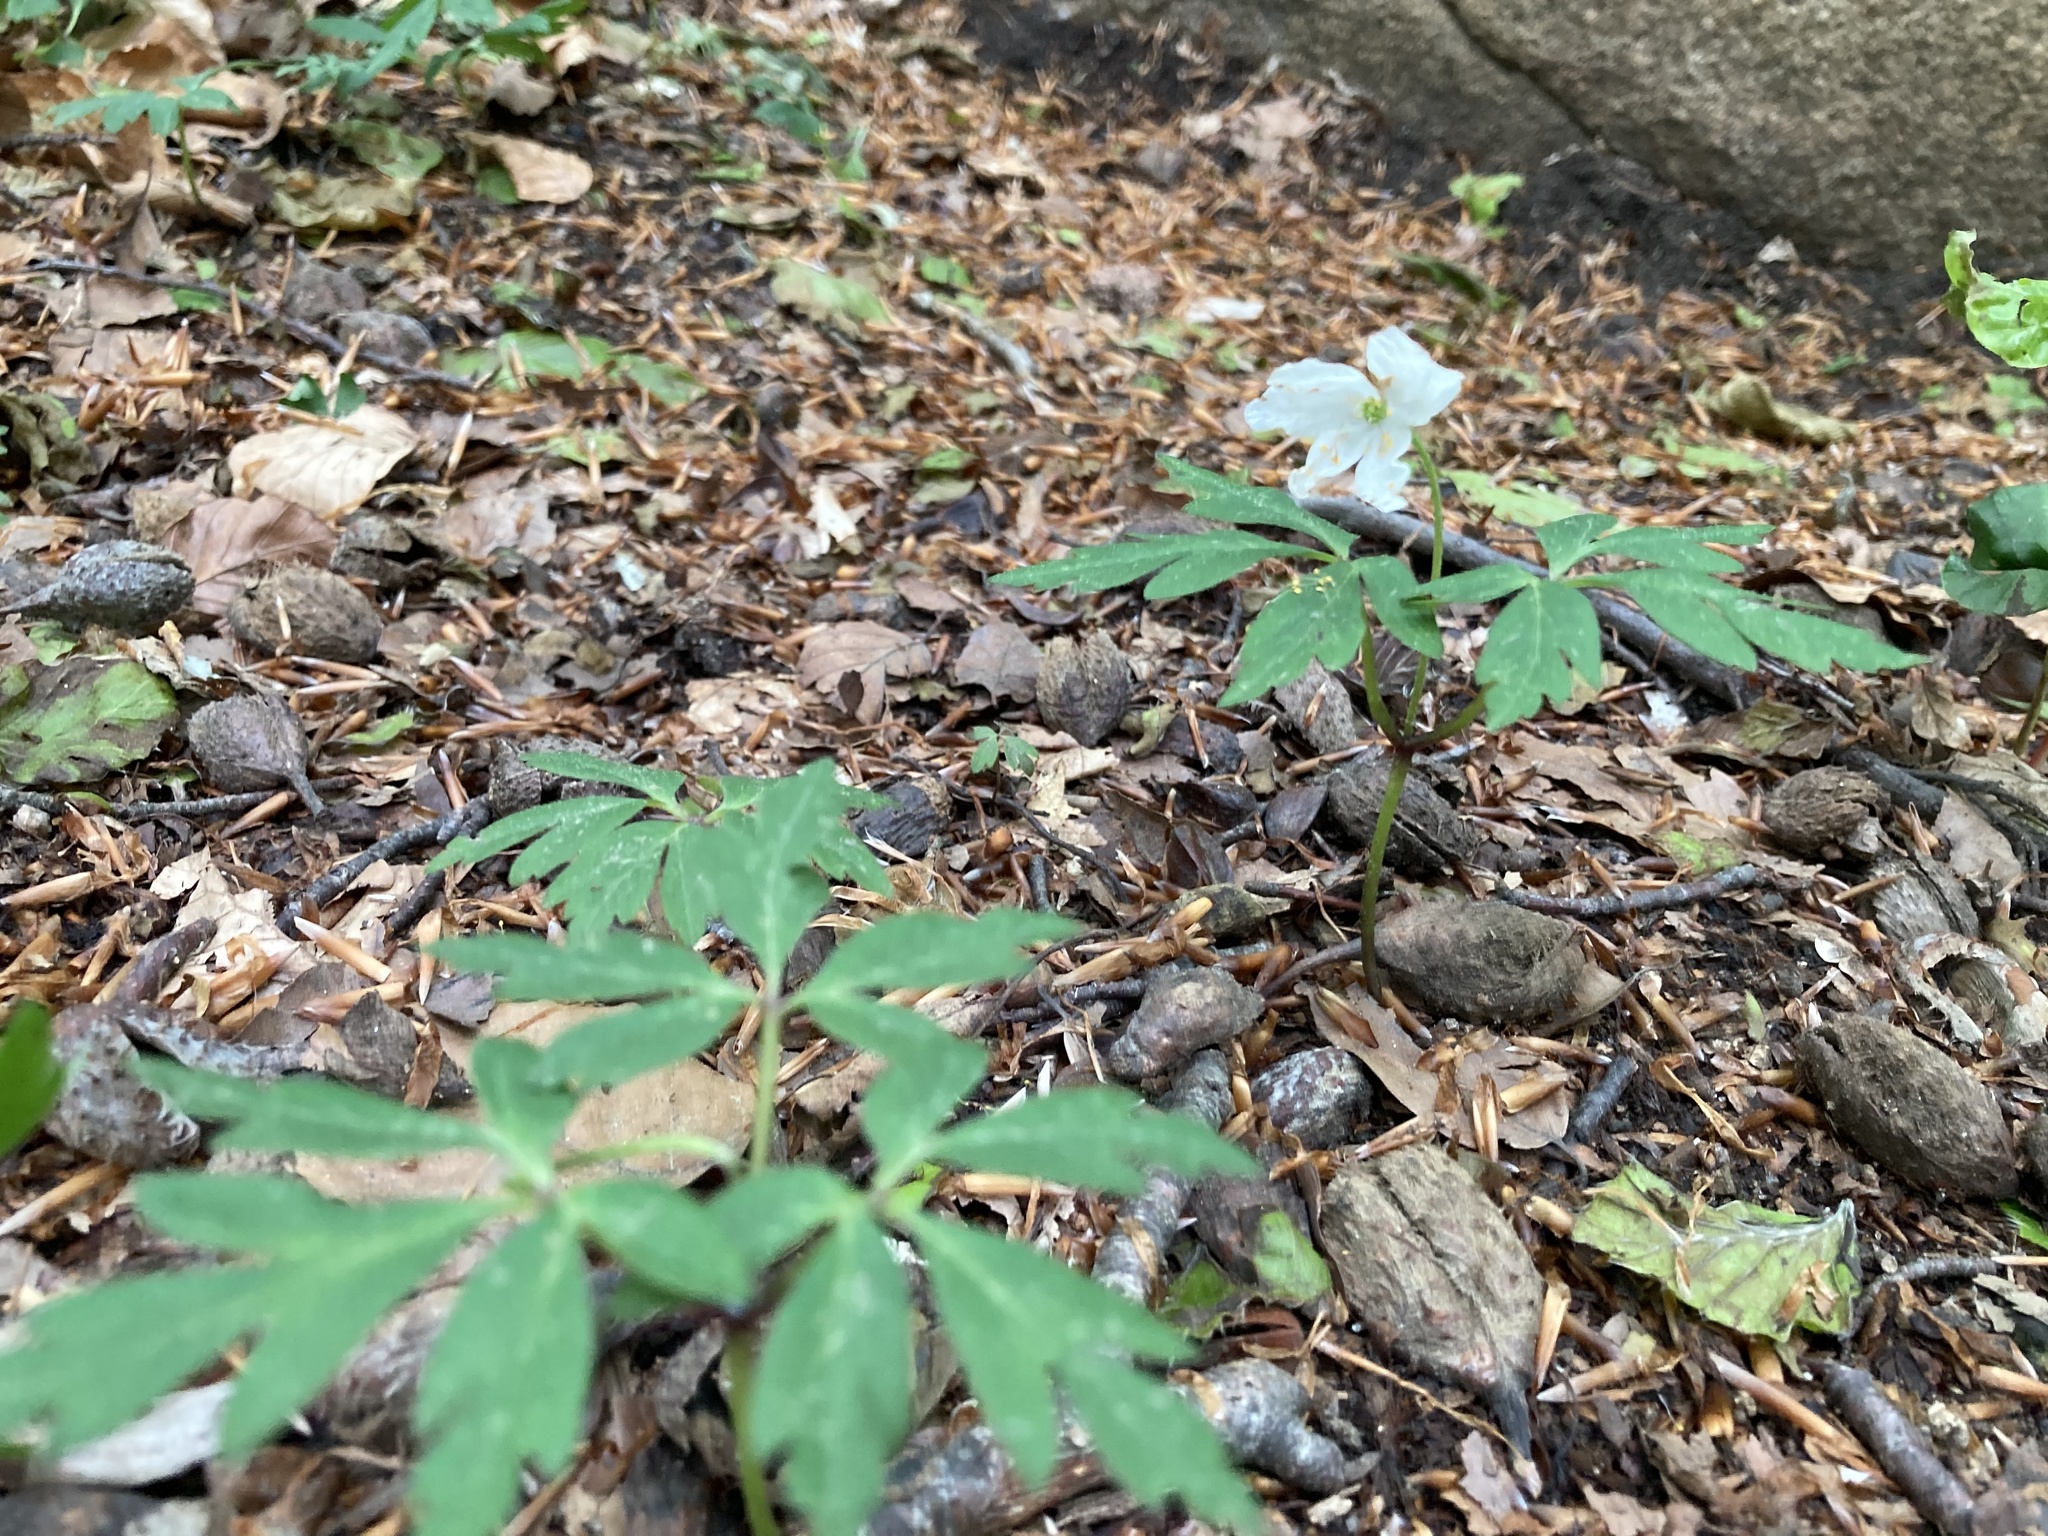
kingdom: Plantae
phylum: Tracheophyta
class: Magnoliopsida
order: Ranunculales
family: Ranunculaceae
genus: Anemone
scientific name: Anemone nemorosa
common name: Wood anemone
